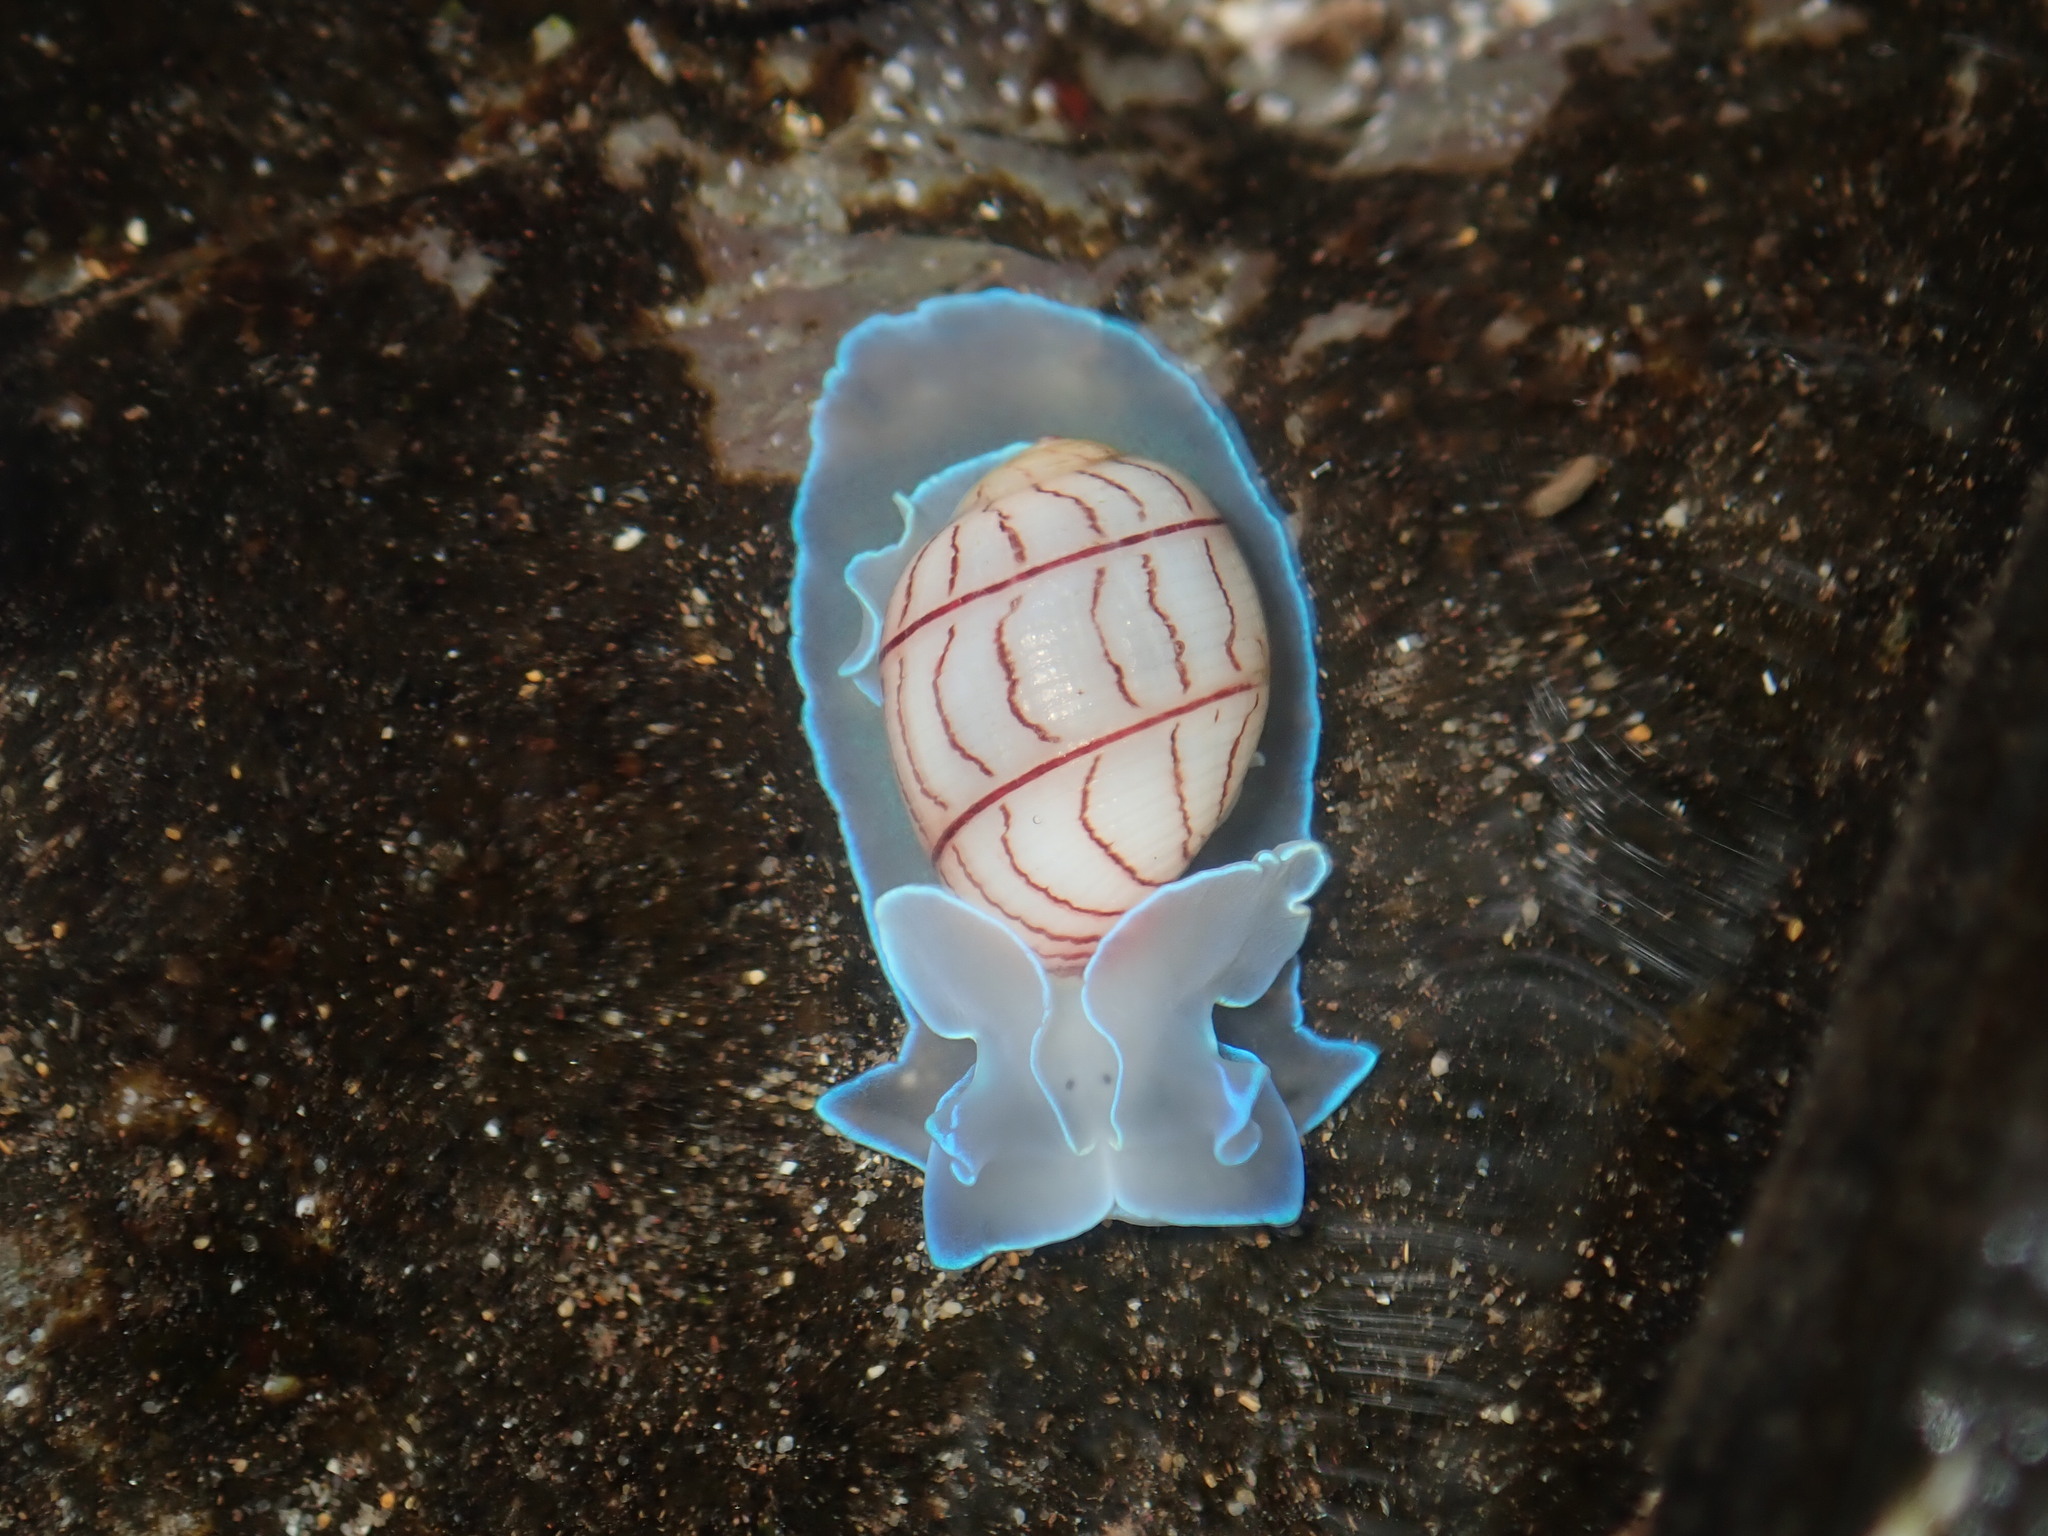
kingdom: Animalia
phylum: Mollusca
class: Gastropoda
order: Cephalaspidea
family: Aplustridae
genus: Bullina
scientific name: Bullina lineata
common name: Lined bubble snail
